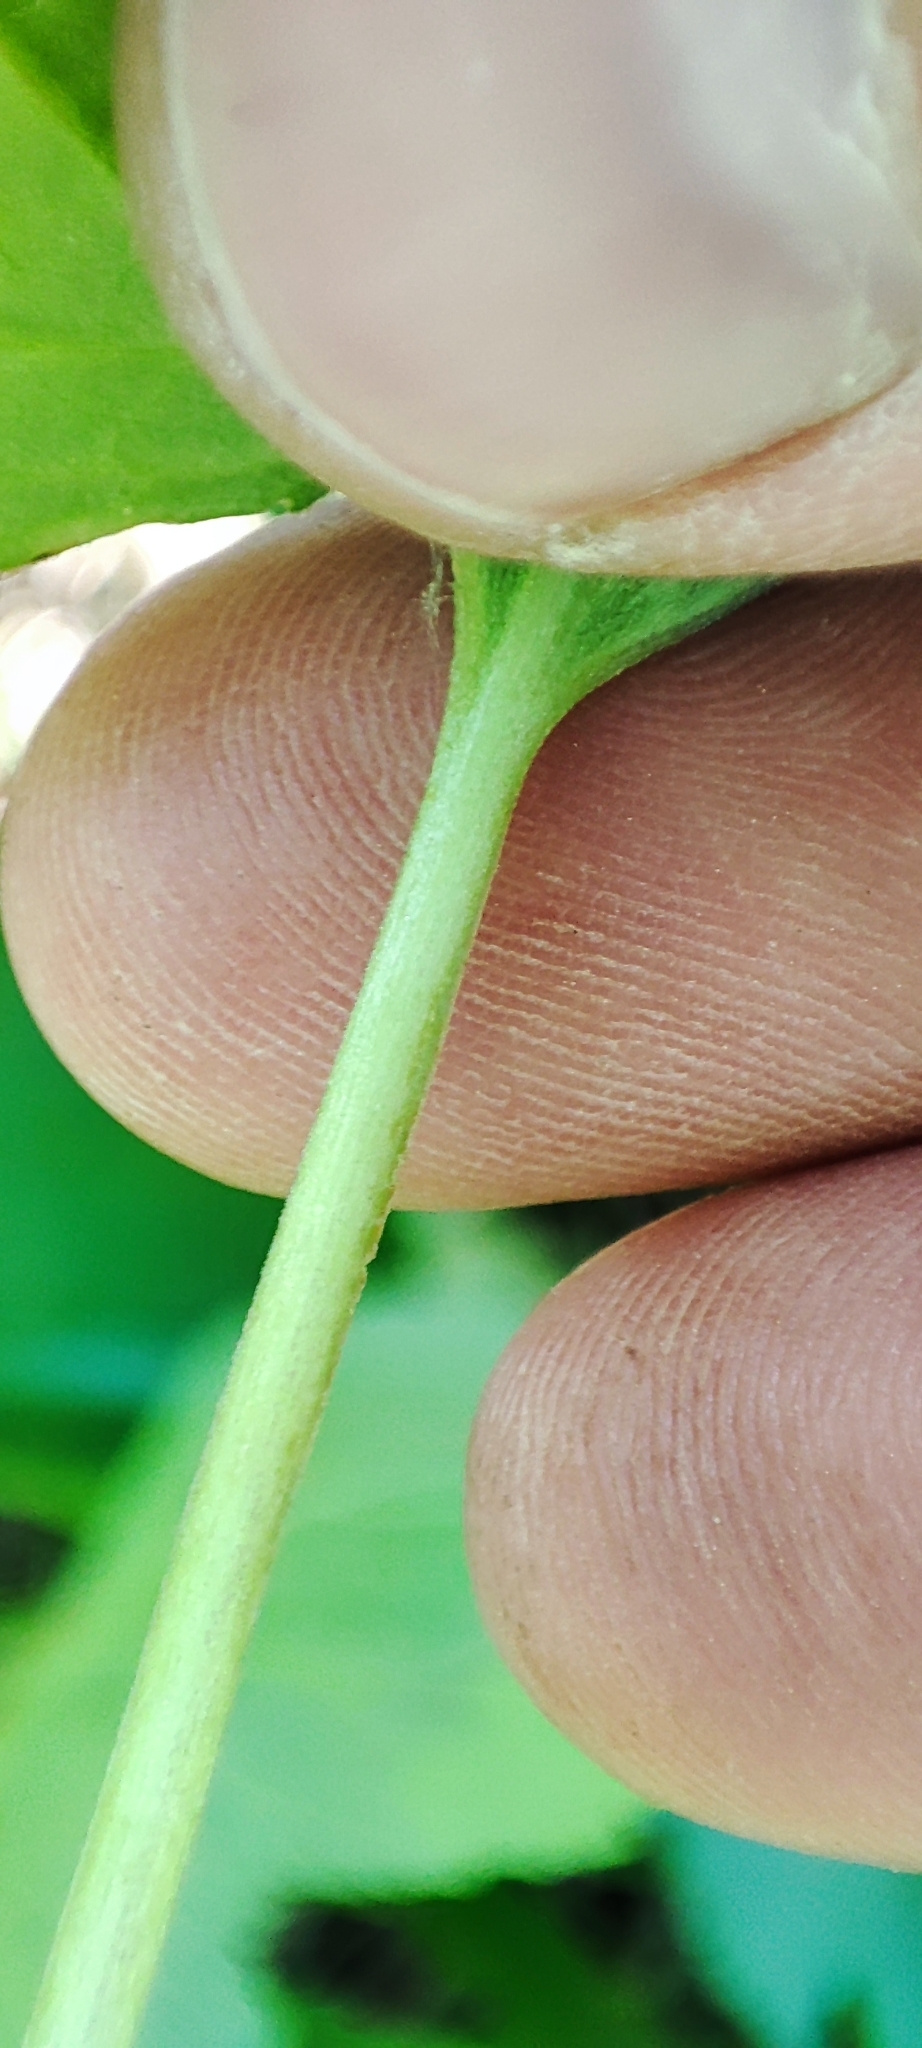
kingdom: Plantae
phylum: Tracheophyta
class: Magnoliopsida
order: Malpighiales
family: Violaceae
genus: Viola
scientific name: Viola mirabilis
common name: Wonder violet
